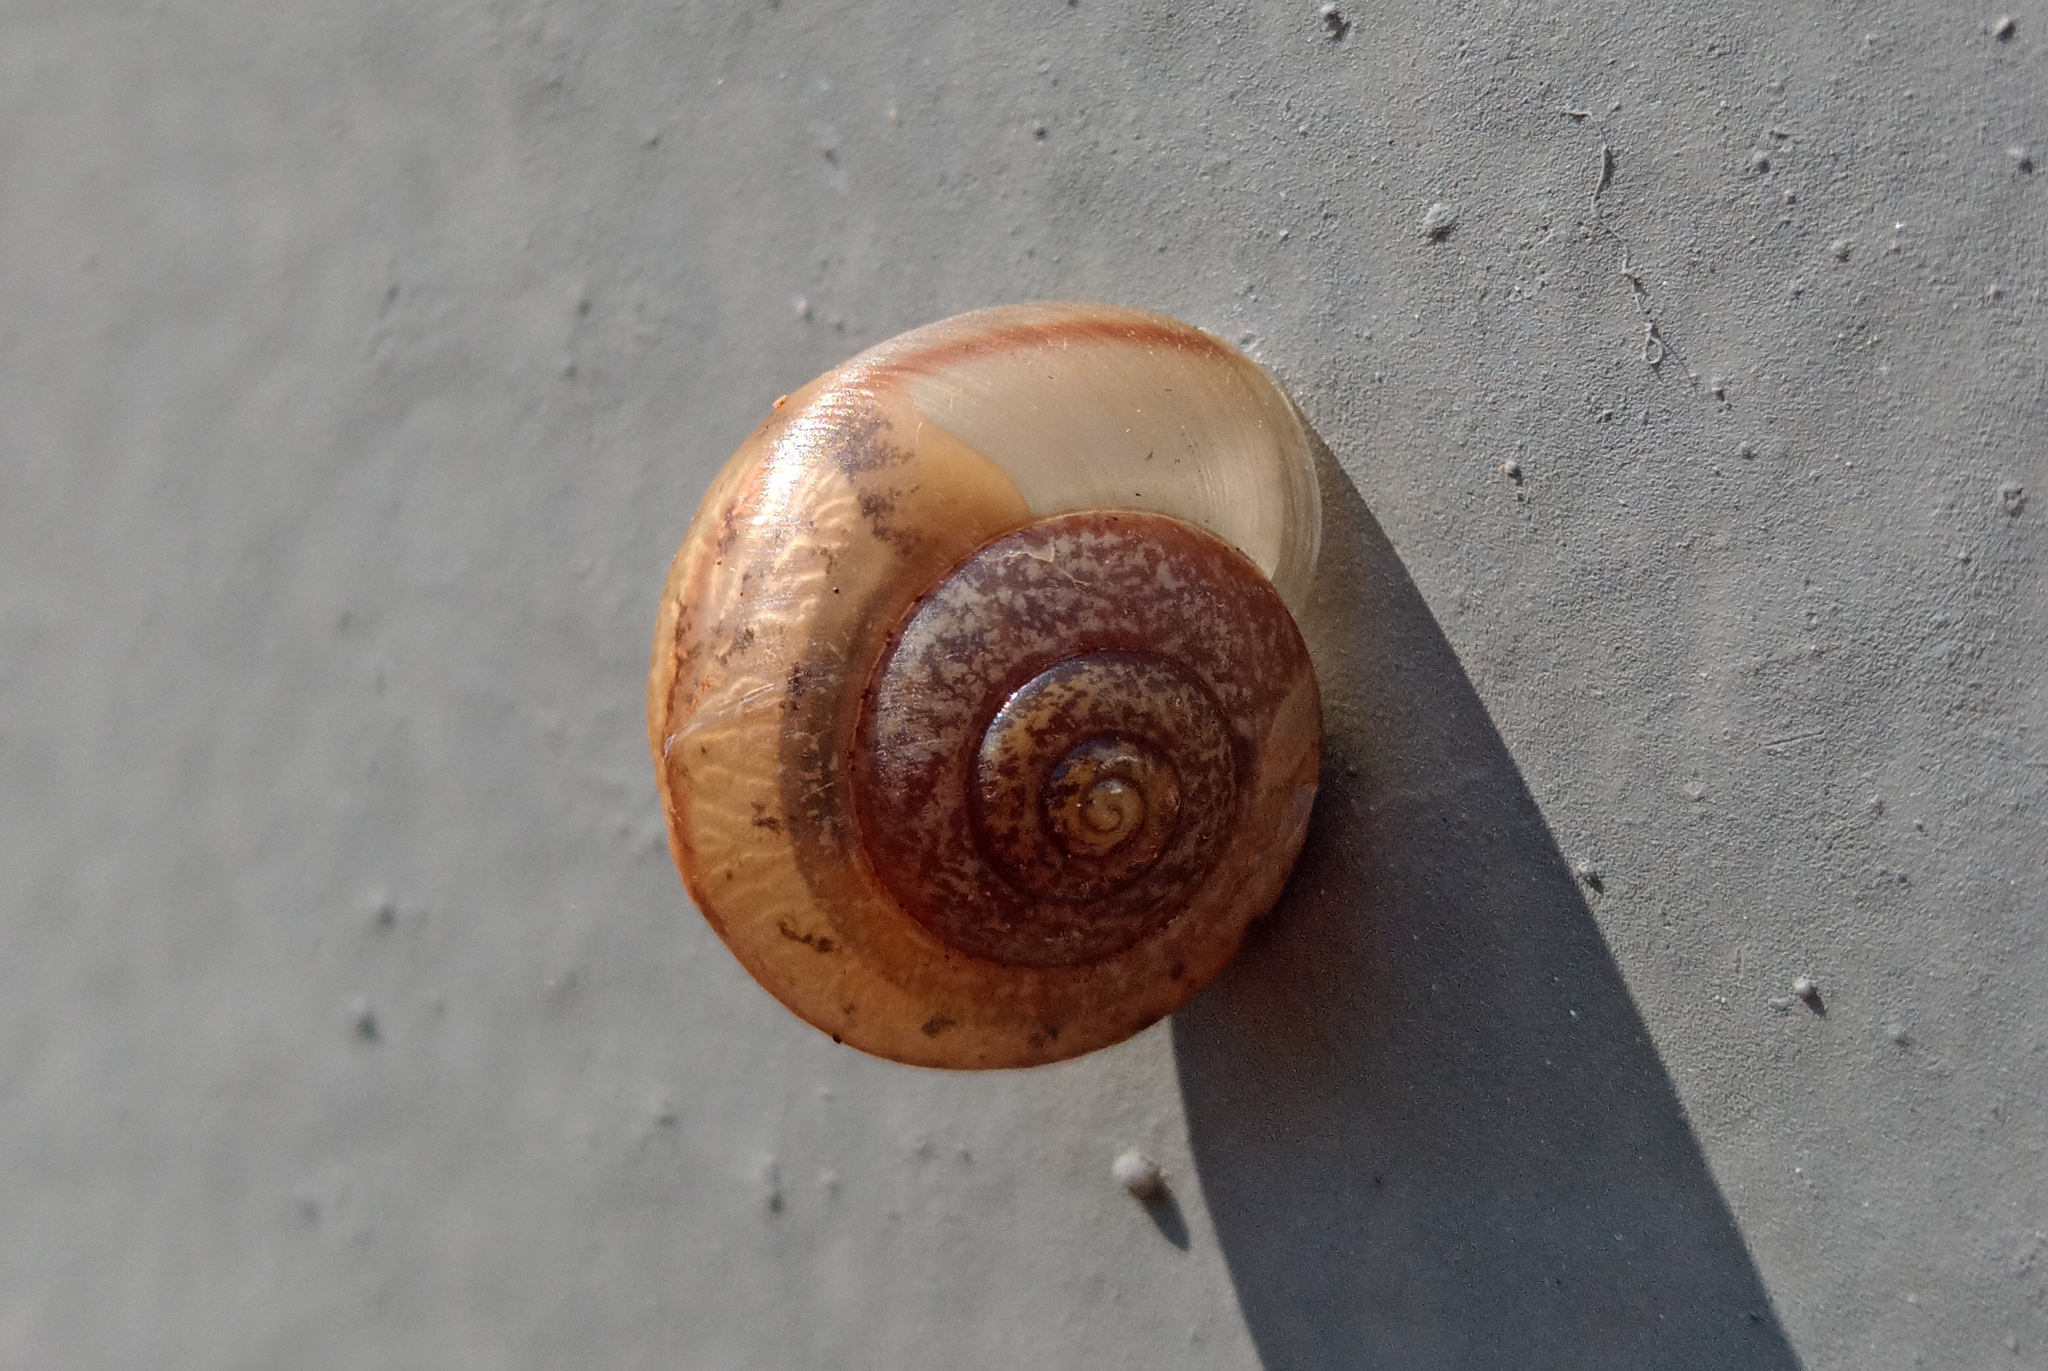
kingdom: Animalia
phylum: Mollusca
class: Gastropoda
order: Stylommatophora
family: Camaenidae
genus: Bradybaena
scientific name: Bradybaena similaris
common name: Asian trampsnail
